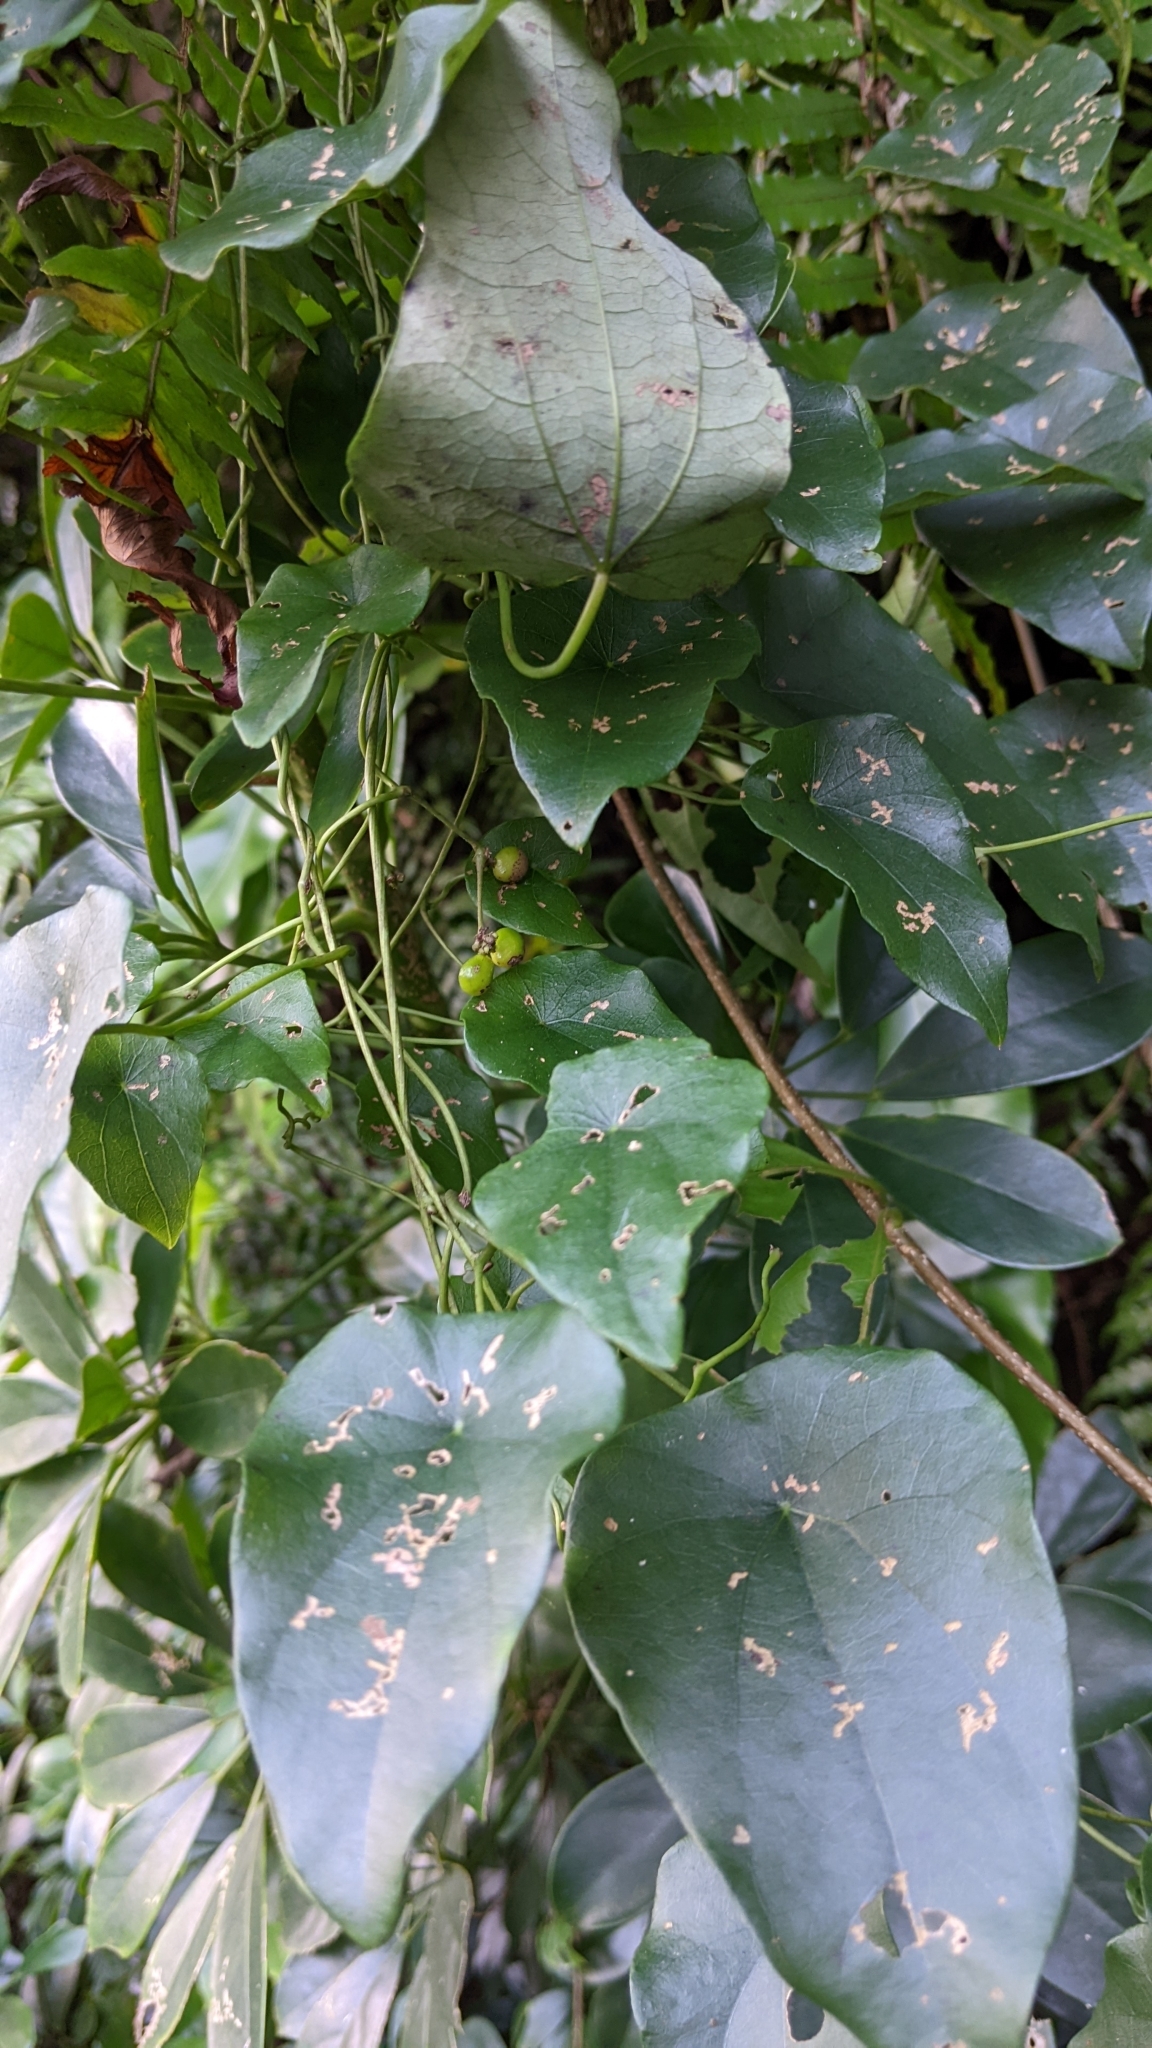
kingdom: Plantae
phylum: Tracheophyta
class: Magnoliopsida
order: Ranunculales
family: Menispermaceae
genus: Stephania
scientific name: Stephania longa
